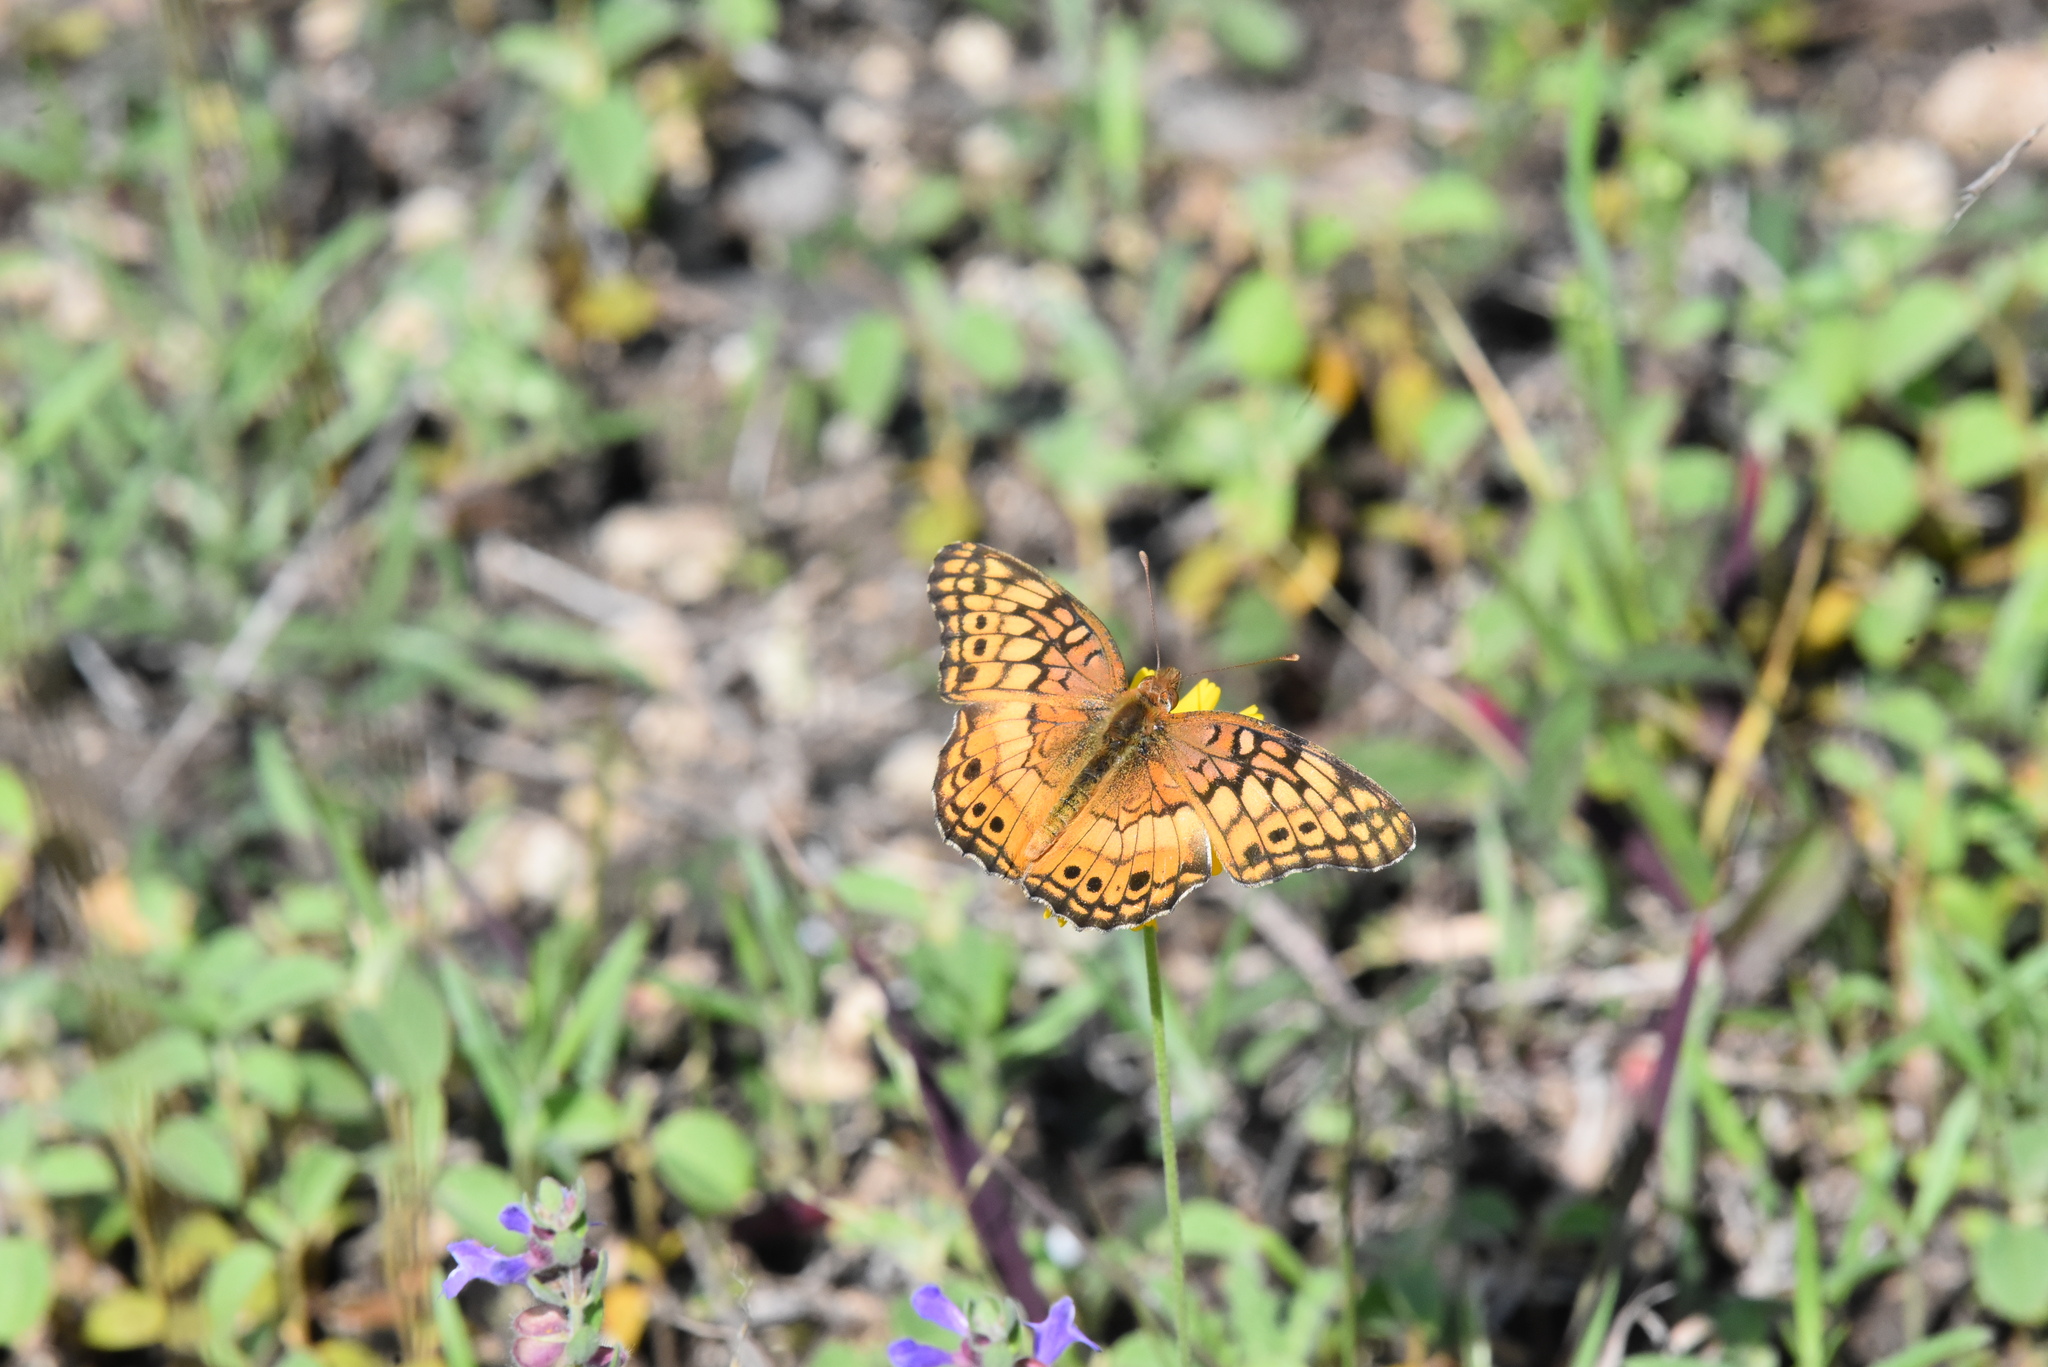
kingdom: Animalia
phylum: Arthropoda
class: Insecta
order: Lepidoptera
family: Nymphalidae
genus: Euptoieta
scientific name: Euptoieta claudia
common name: Variegated fritillary
